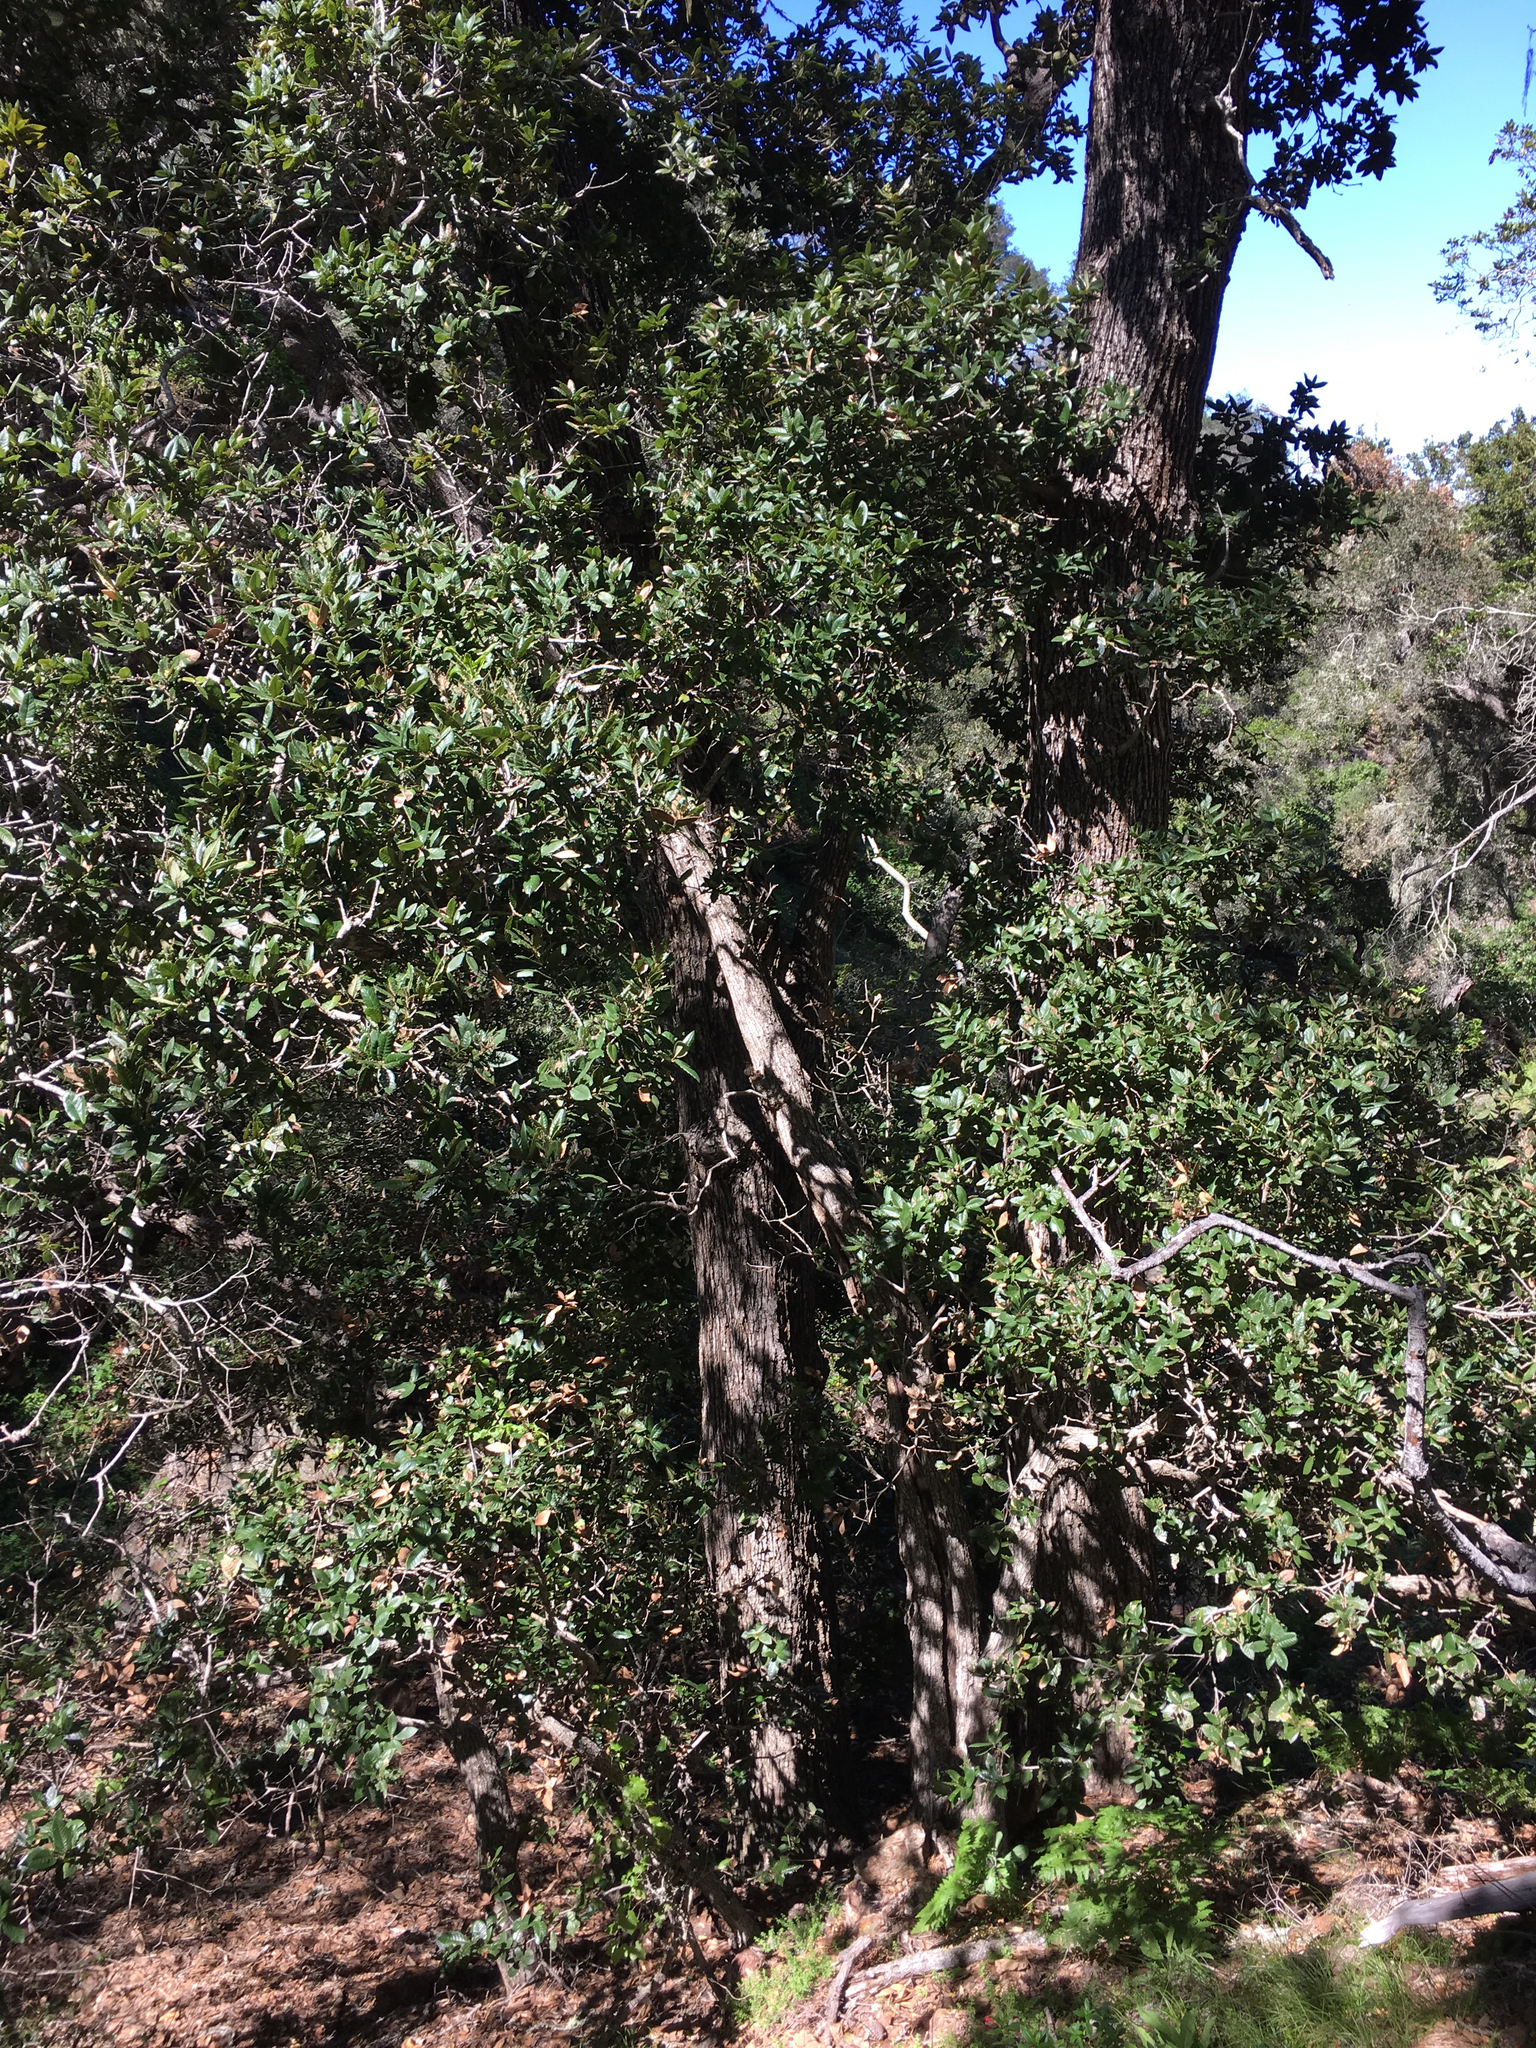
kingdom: Plantae
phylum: Tracheophyta
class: Magnoliopsida
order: Fagales
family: Fagaceae
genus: Quercus
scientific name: Quercus tomentella
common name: Island oak
